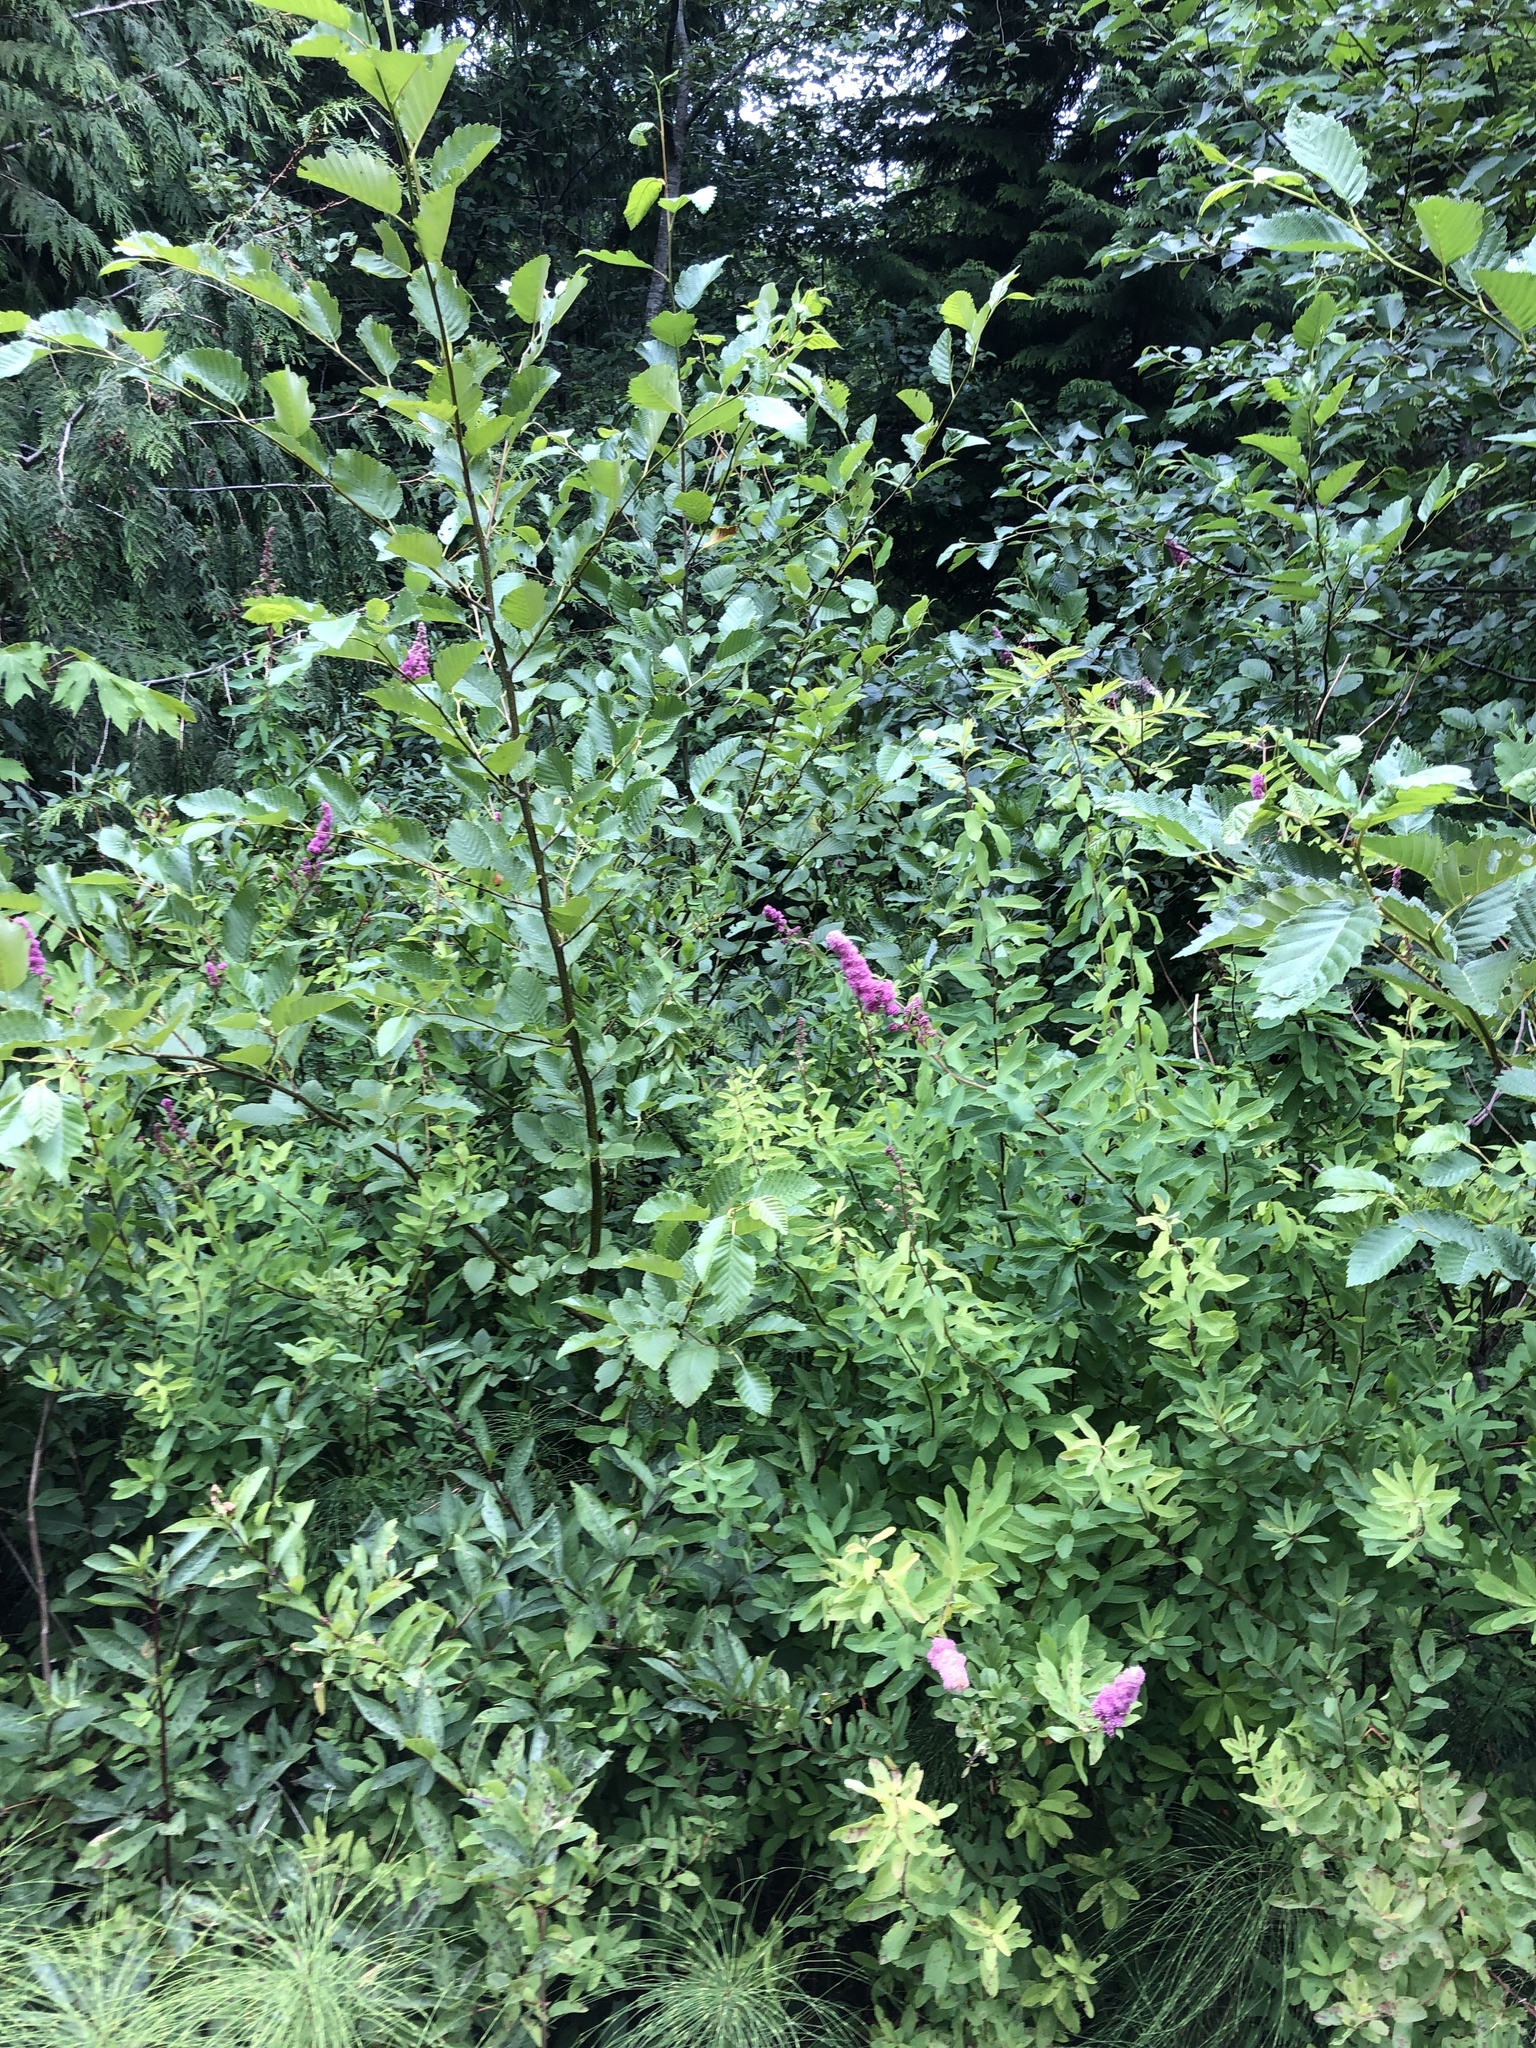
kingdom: Plantae
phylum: Tracheophyta
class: Magnoliopsida
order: Rosales
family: Rosaceae
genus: Spiraea
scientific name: Spiraea douglasii
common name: Steeplebush
